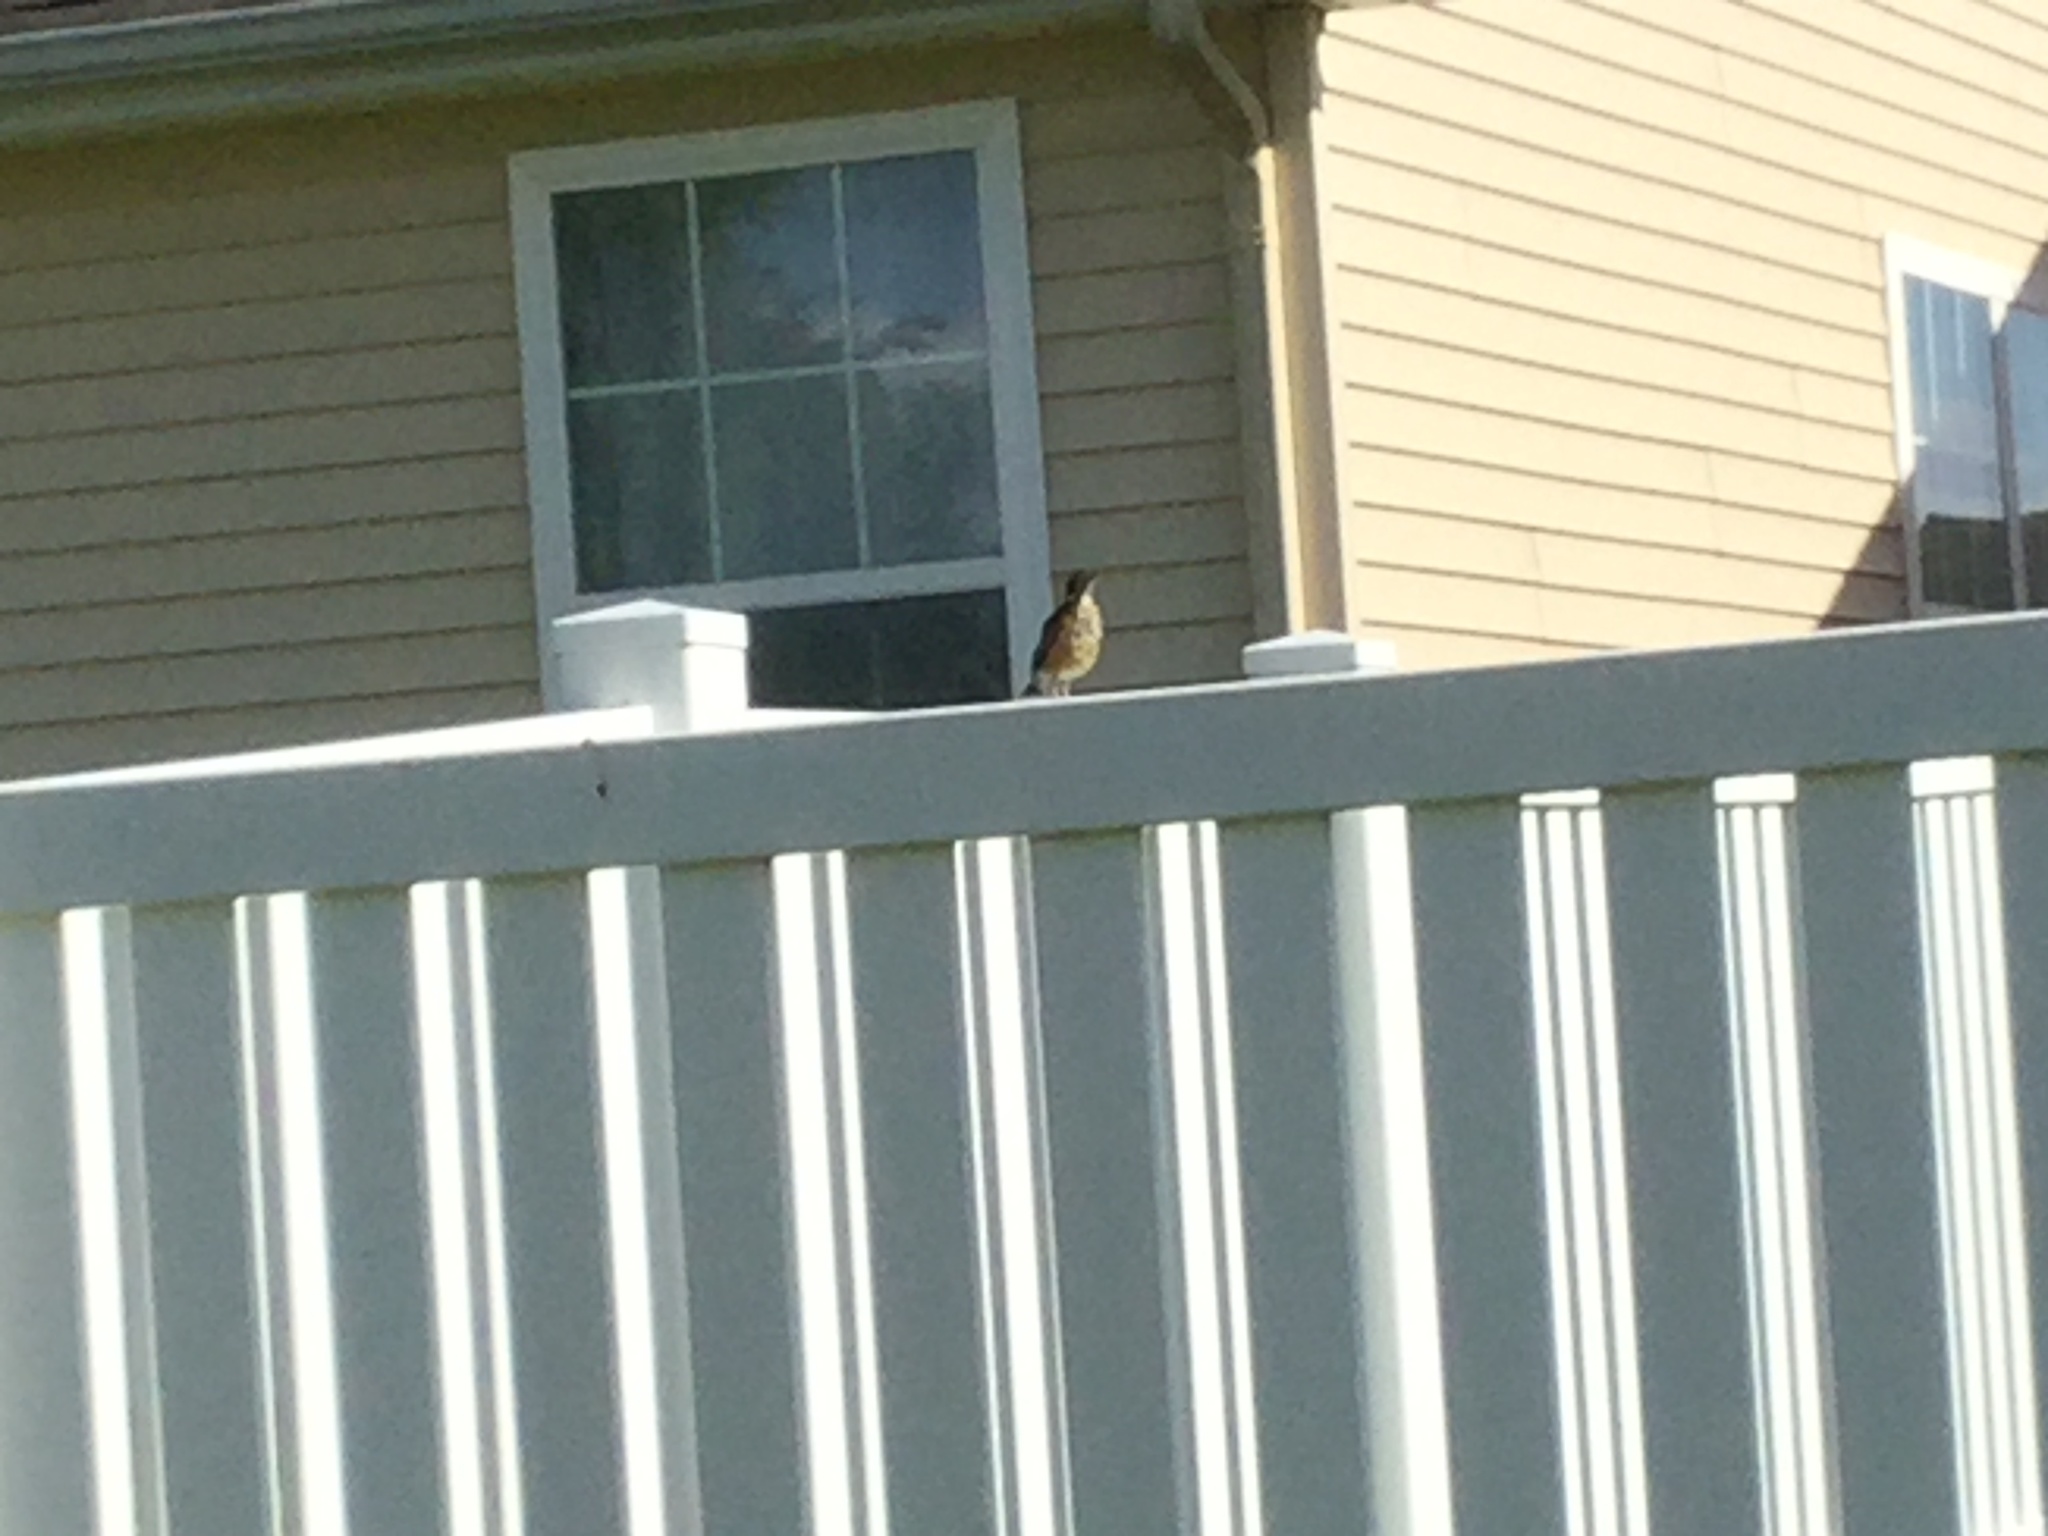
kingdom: Animalia
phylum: Chordata
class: Aves
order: Passeriformes
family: Turdidae
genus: Turdus
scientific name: Turdus migratorius
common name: American robin
